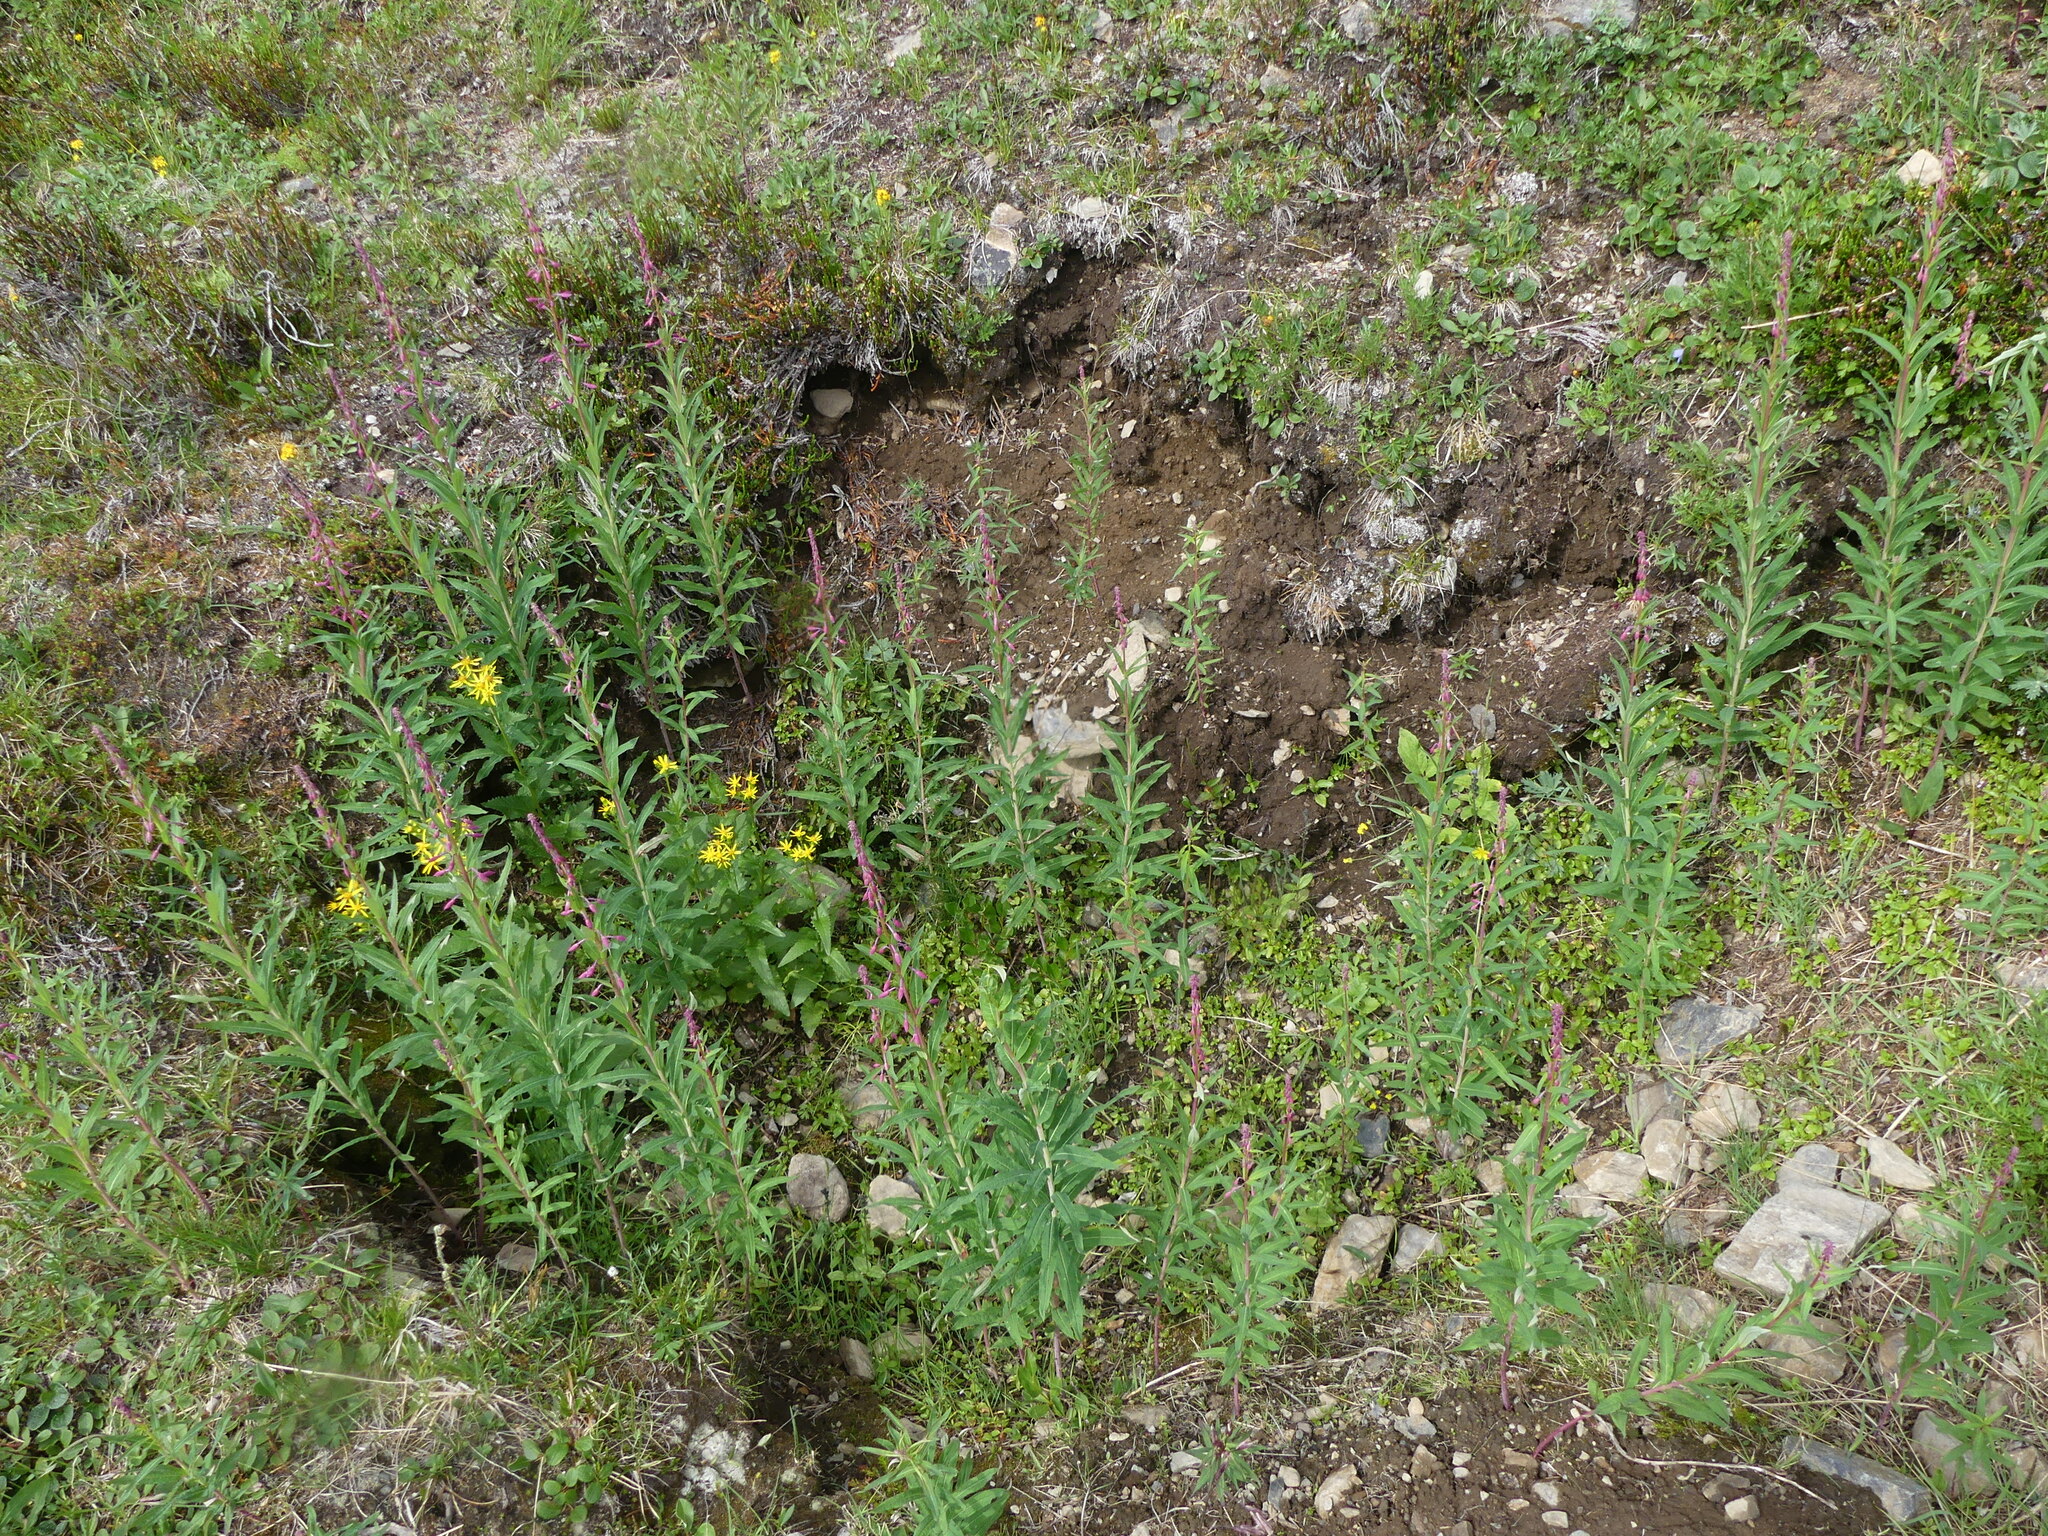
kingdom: Plantae
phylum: Tracheophyta
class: Magnoliopsida
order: Myrtales
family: Onagraceae
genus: Chamaenerion
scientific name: Chamaenerion angustifolium
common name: Fireweed
